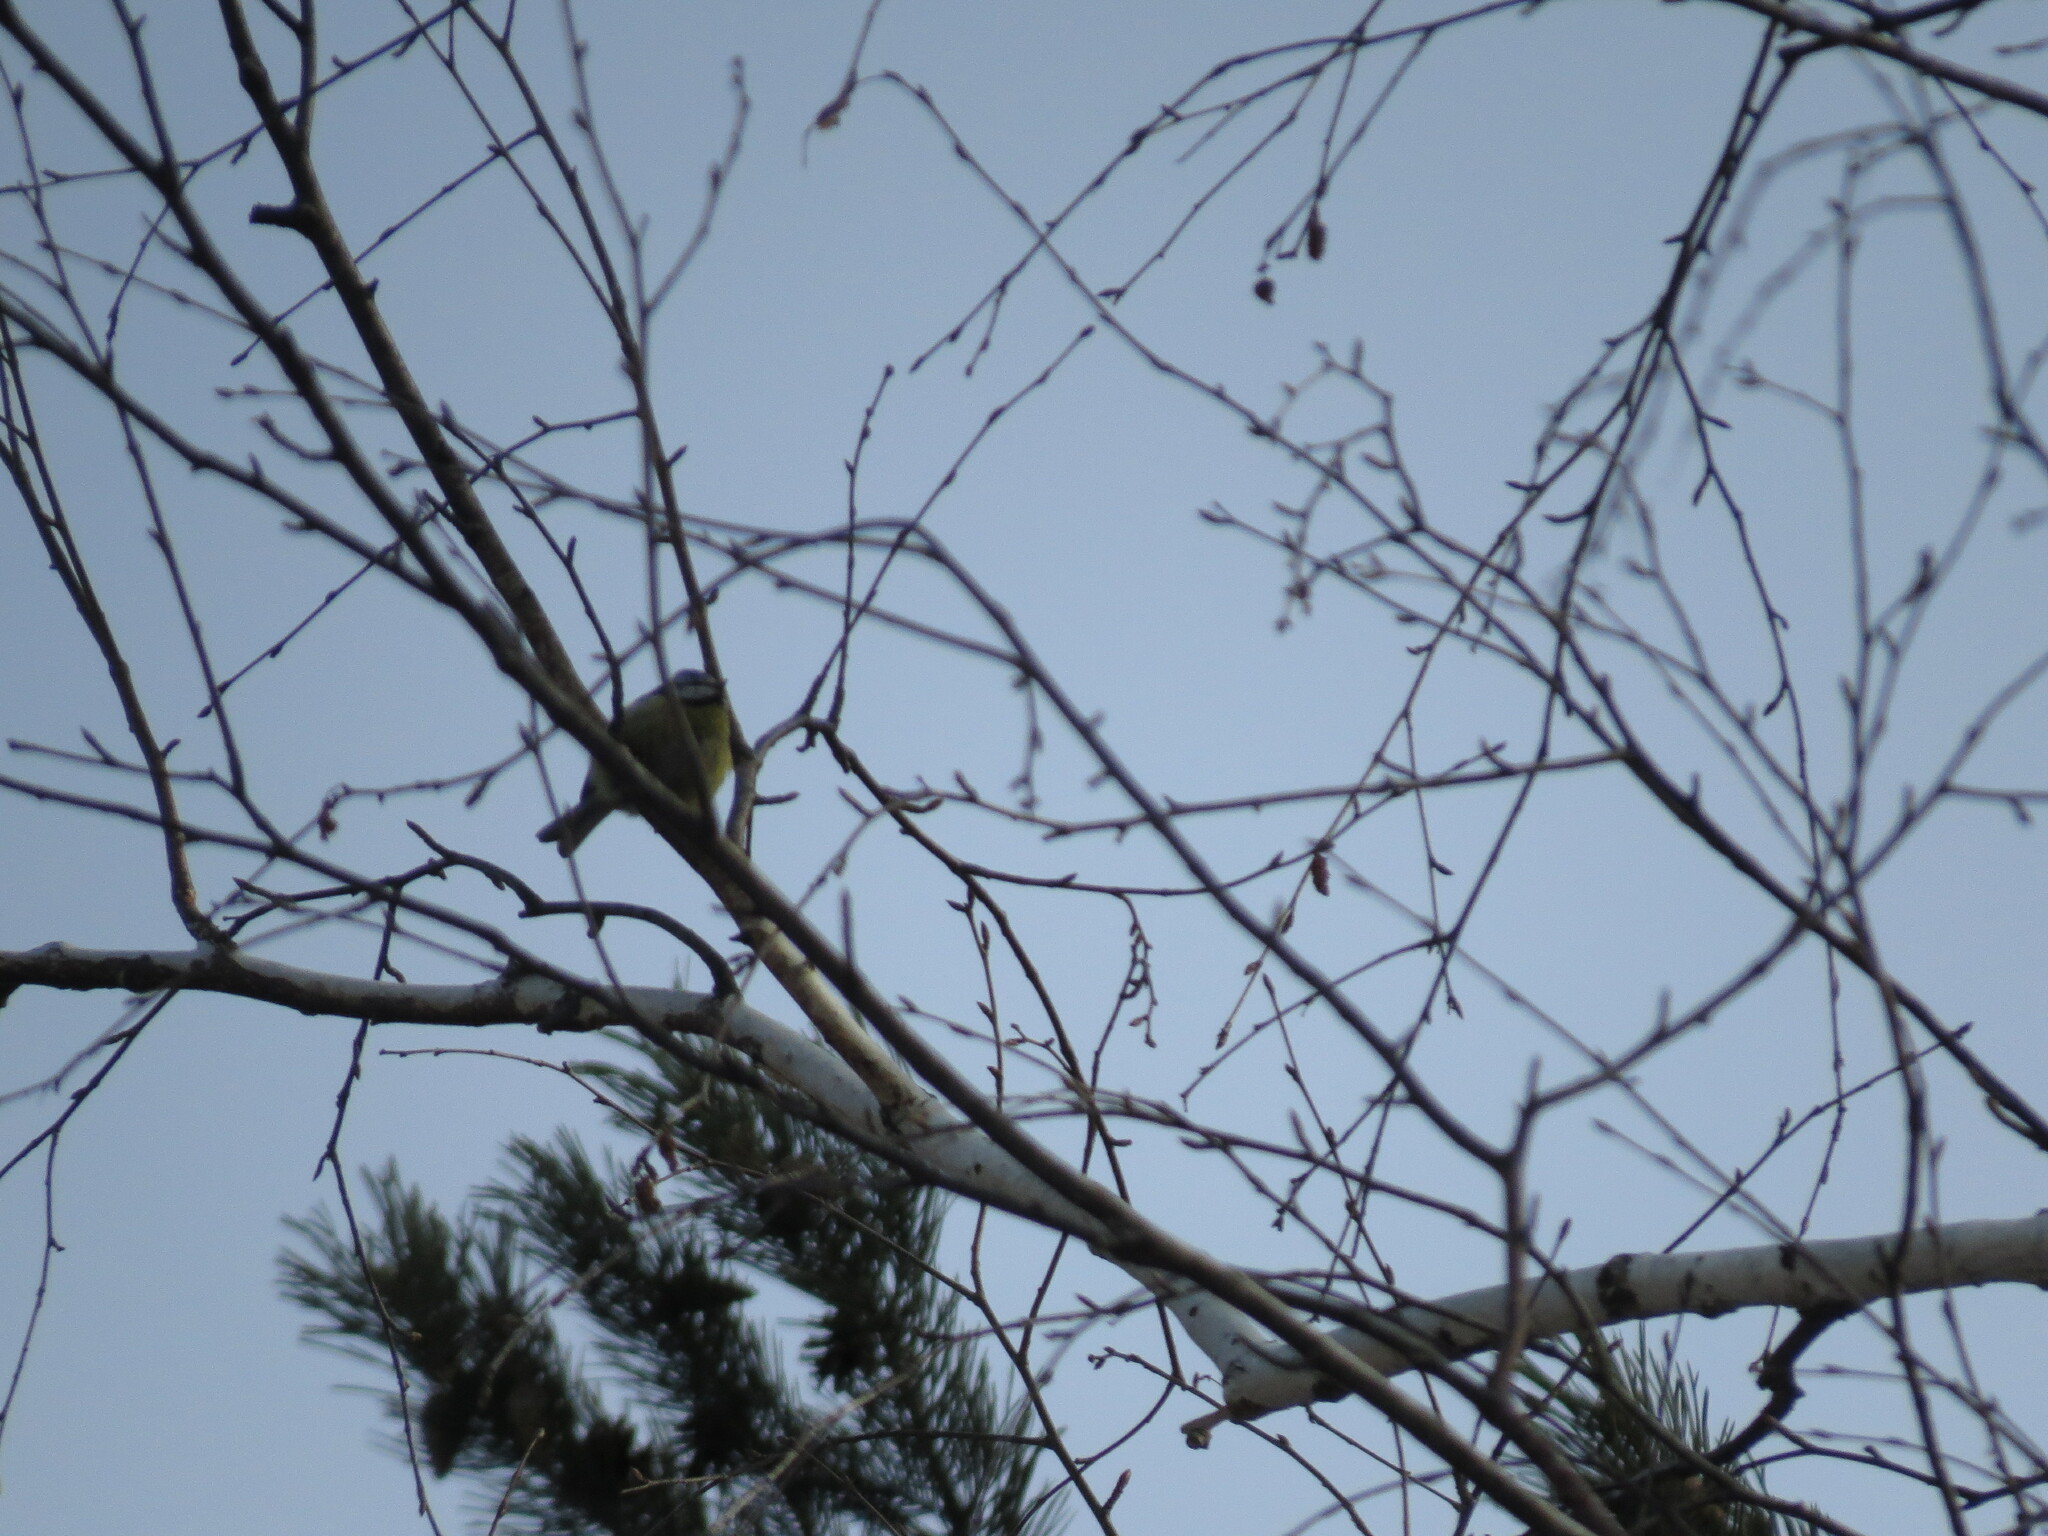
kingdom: Animalia
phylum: Chordata
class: Aves
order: Passeriformes
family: Paridae
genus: Cyanistes
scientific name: Cyanistes caeruleus
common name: Eurasian blue tit
